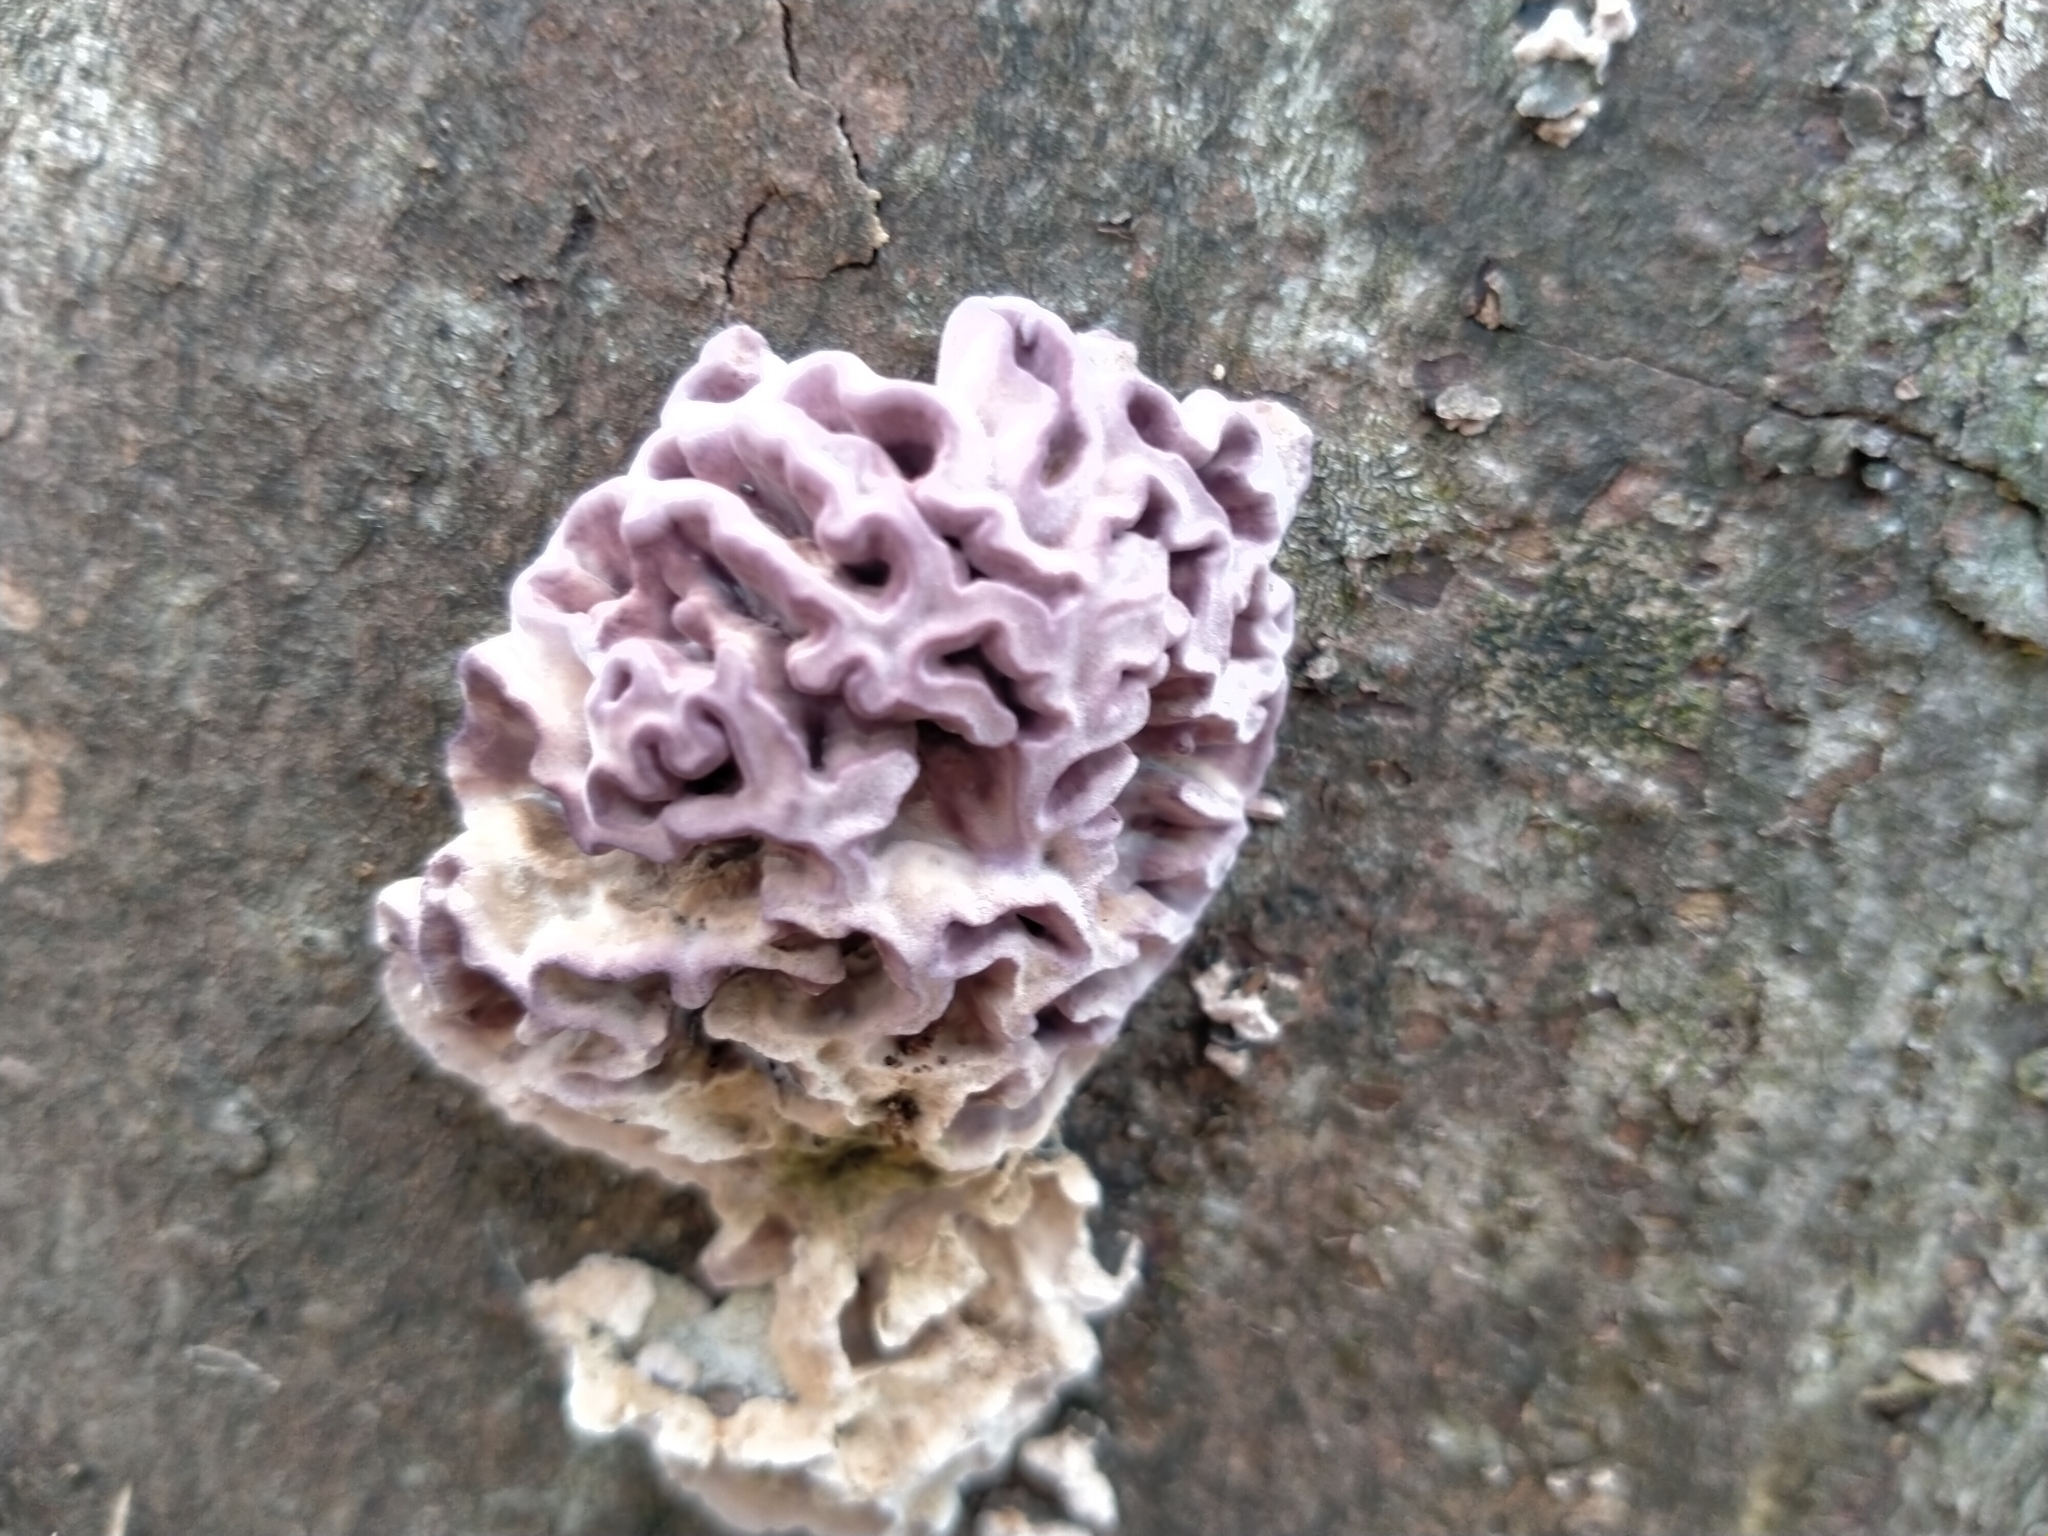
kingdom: Fungi
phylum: Basidiomycota
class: Agaricomycetes
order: Agaricales
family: Cyphellaceae
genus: Chondrostereum
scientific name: Chondrostereum purpureum
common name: Silver leaf disease
